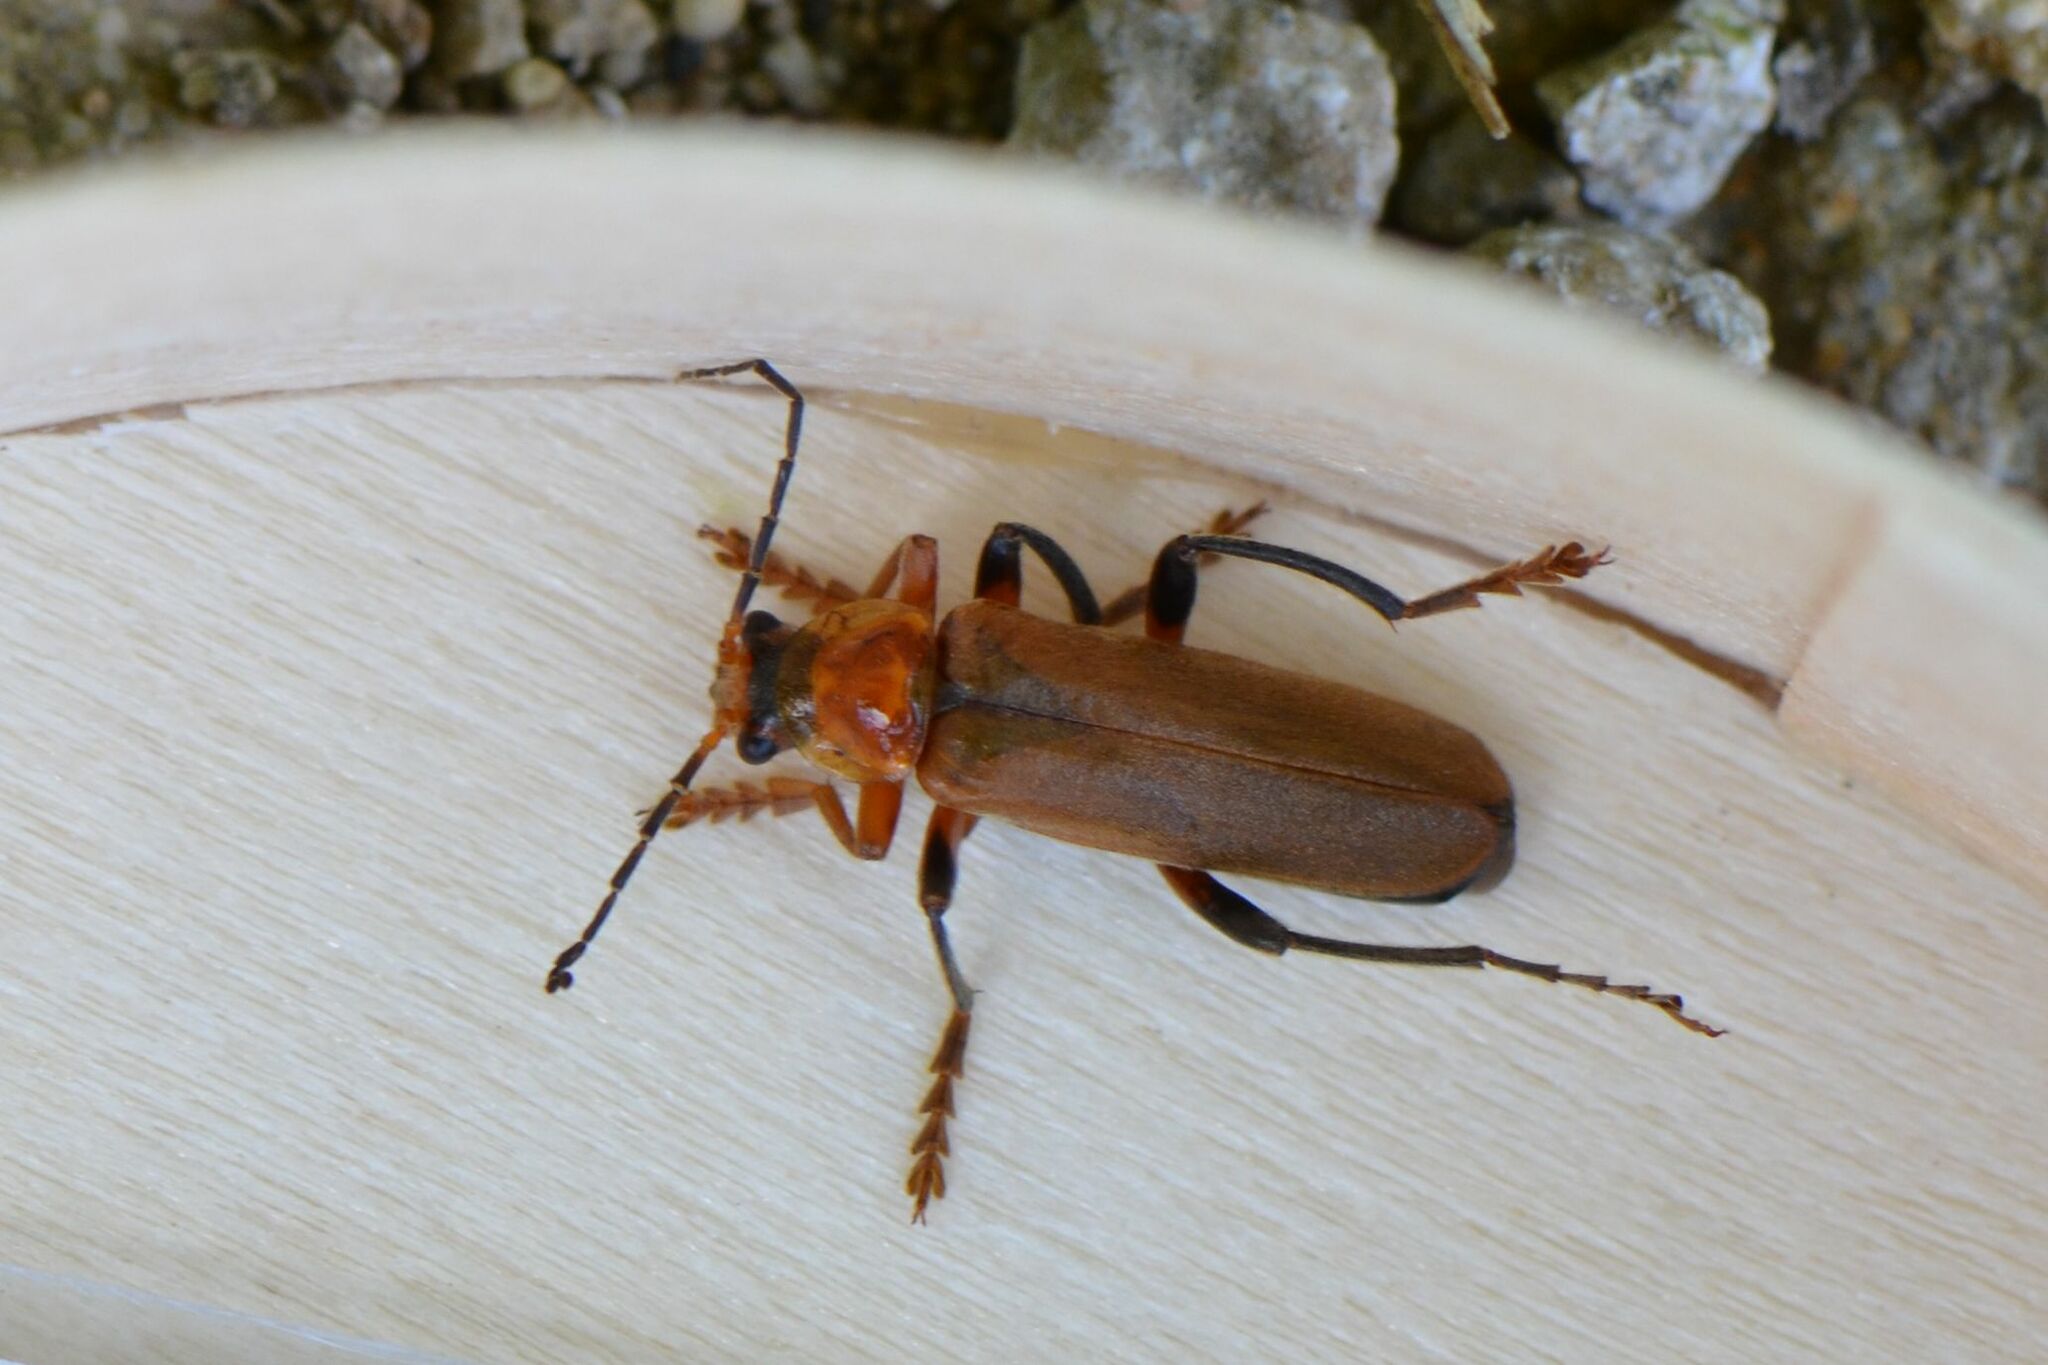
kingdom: Animalia
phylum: Arthropoda
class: Insecta
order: Coleoptera
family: Cantharidae
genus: Cantharis
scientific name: Cantharis livida
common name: Livid soldier beetle
